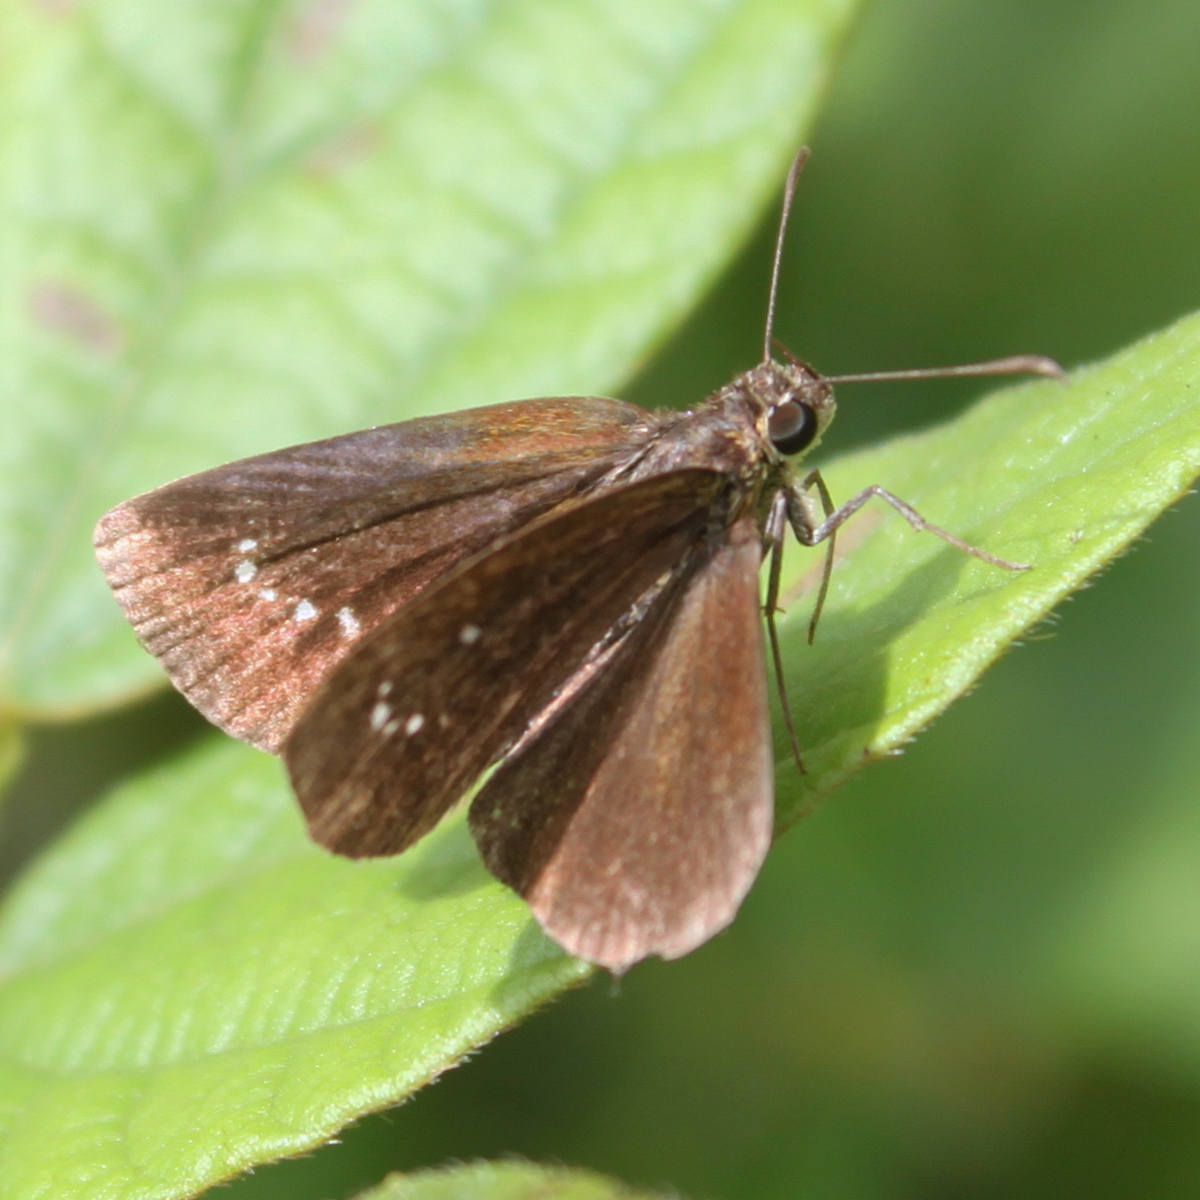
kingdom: Animalia
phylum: Arthropoda
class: Insecta
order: Lepidoptera
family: Hesperiidae
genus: Iambrix
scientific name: Iambrix salsala
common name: Chestnut bob
